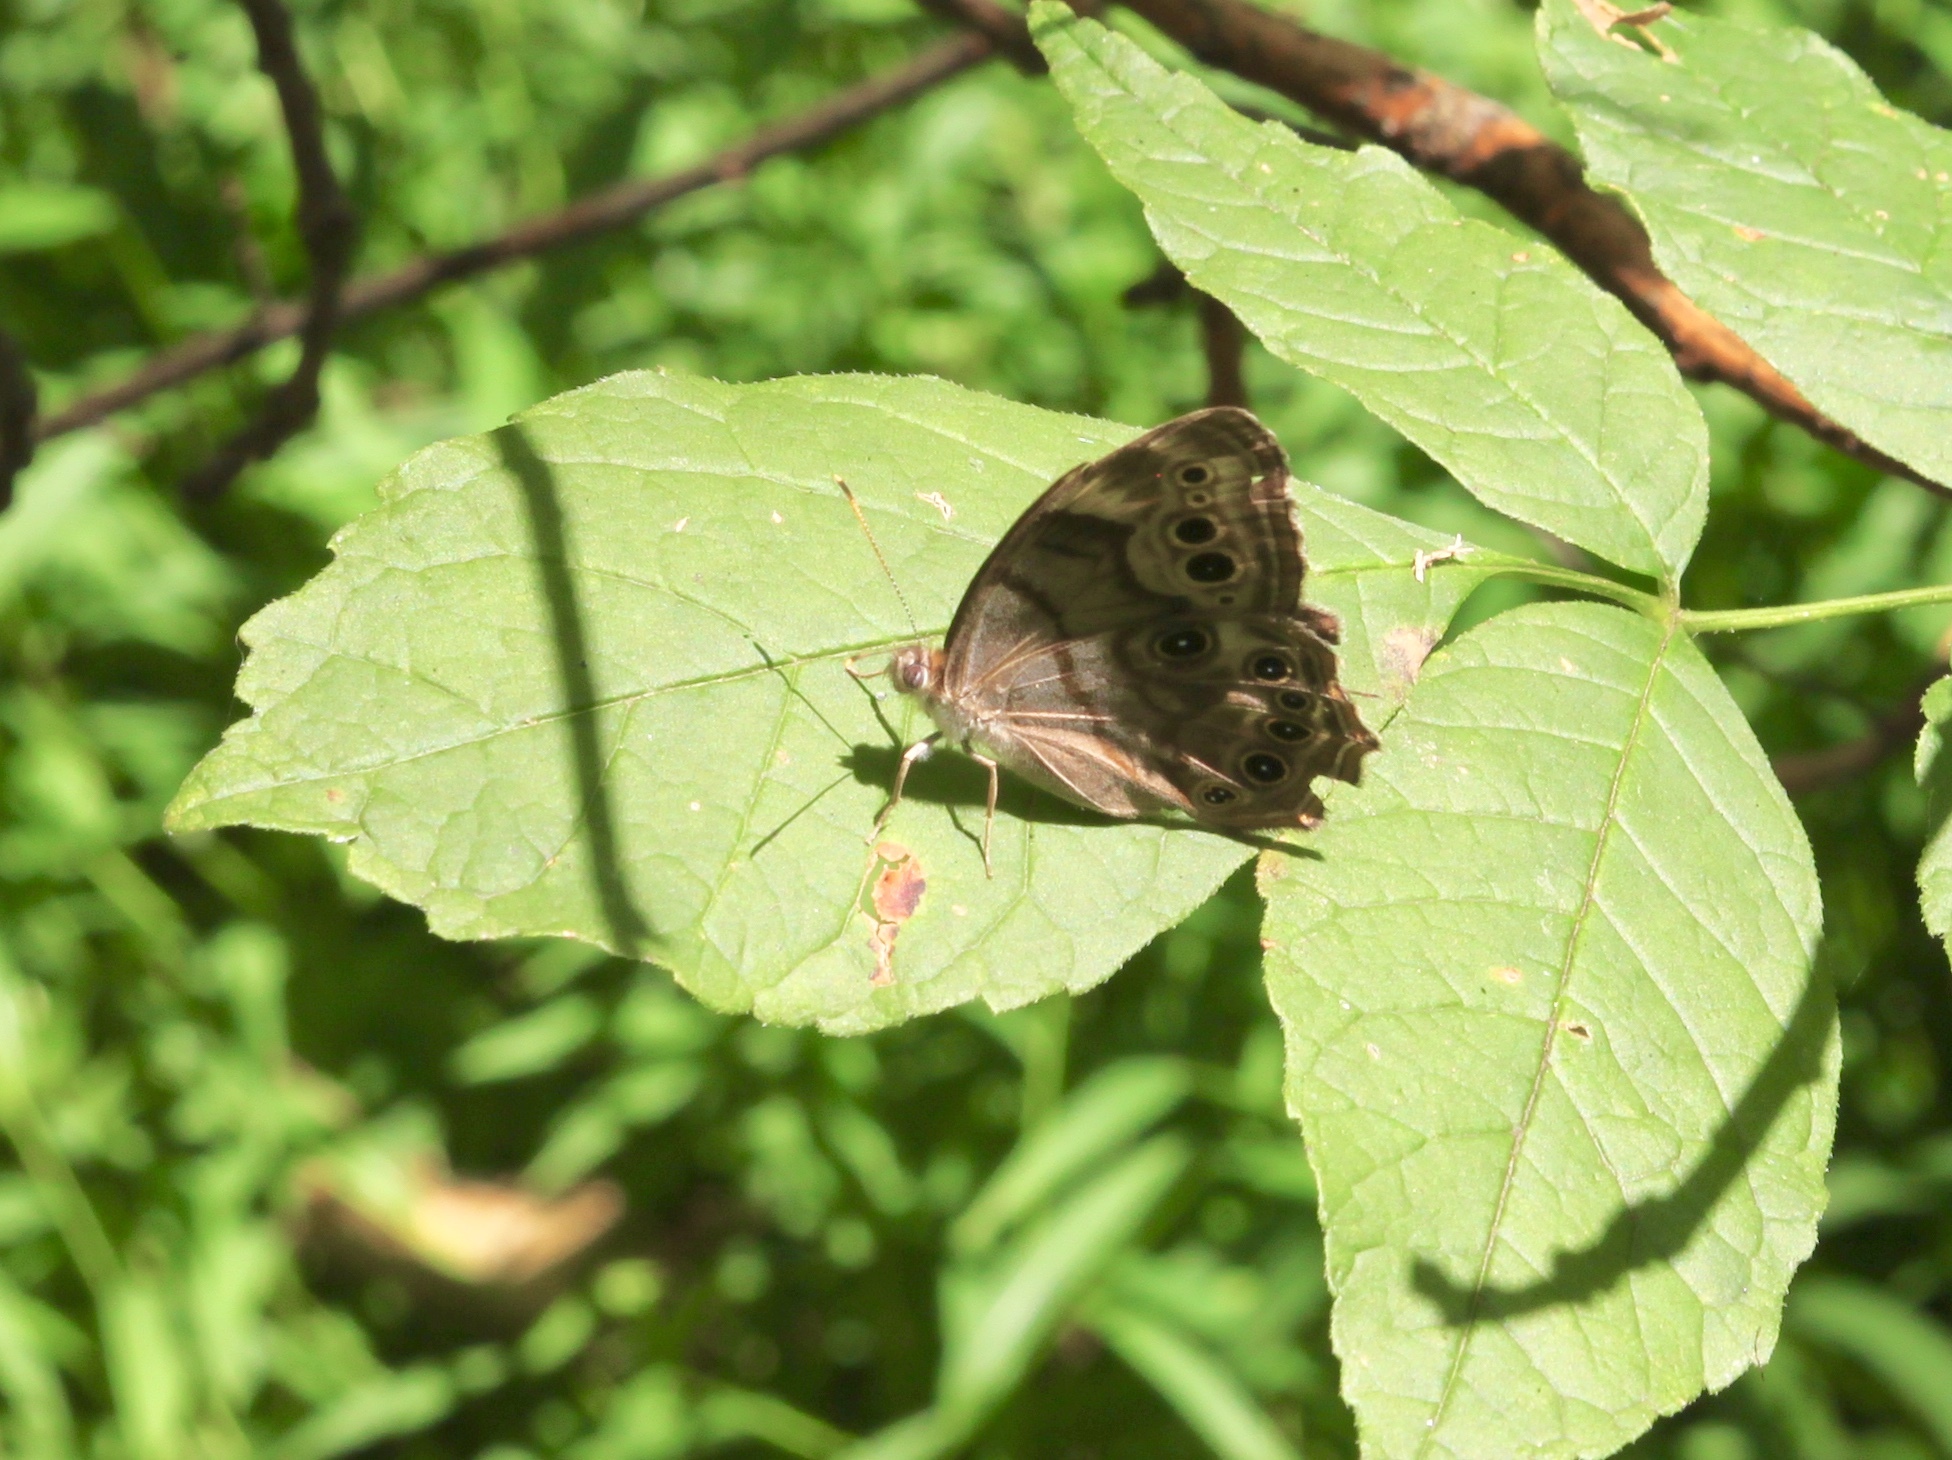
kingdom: Animalia
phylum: Arthropoda
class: Insecta
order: Lepidoptera
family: Nymphalidae
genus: Lethe
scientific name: Lethe anthedon
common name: Northern pearly-eye
